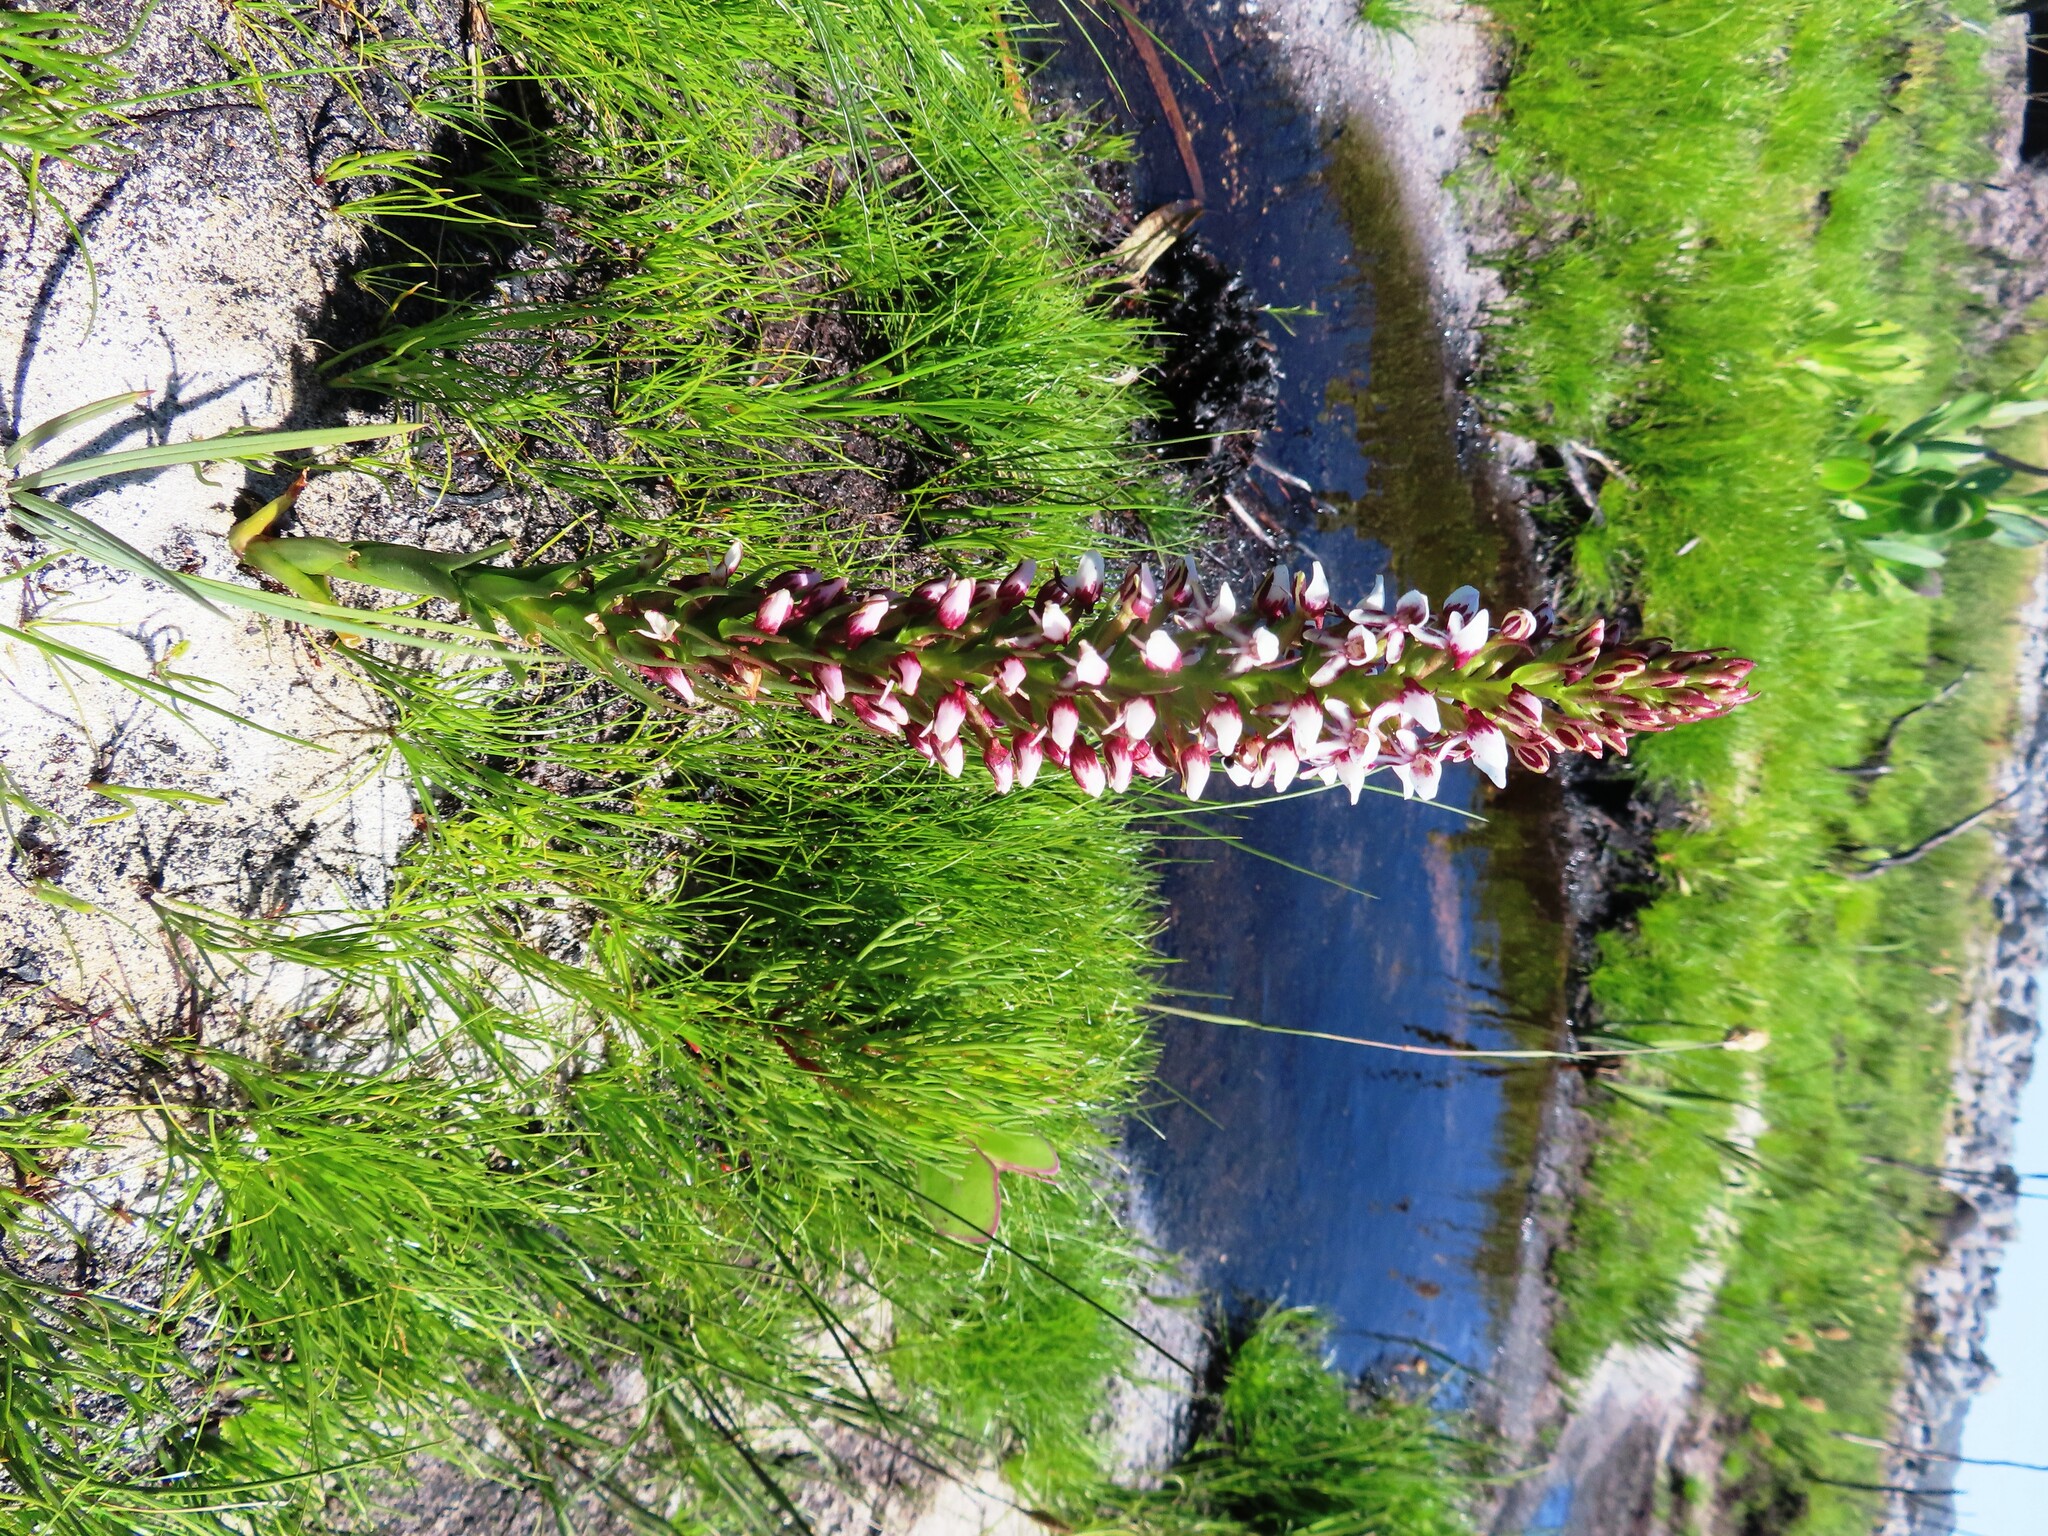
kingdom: Plantae
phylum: Tracheophyta
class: Liliopsida
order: Asparagales
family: Orchidaceae
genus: Disa
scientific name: Disa obtusa
